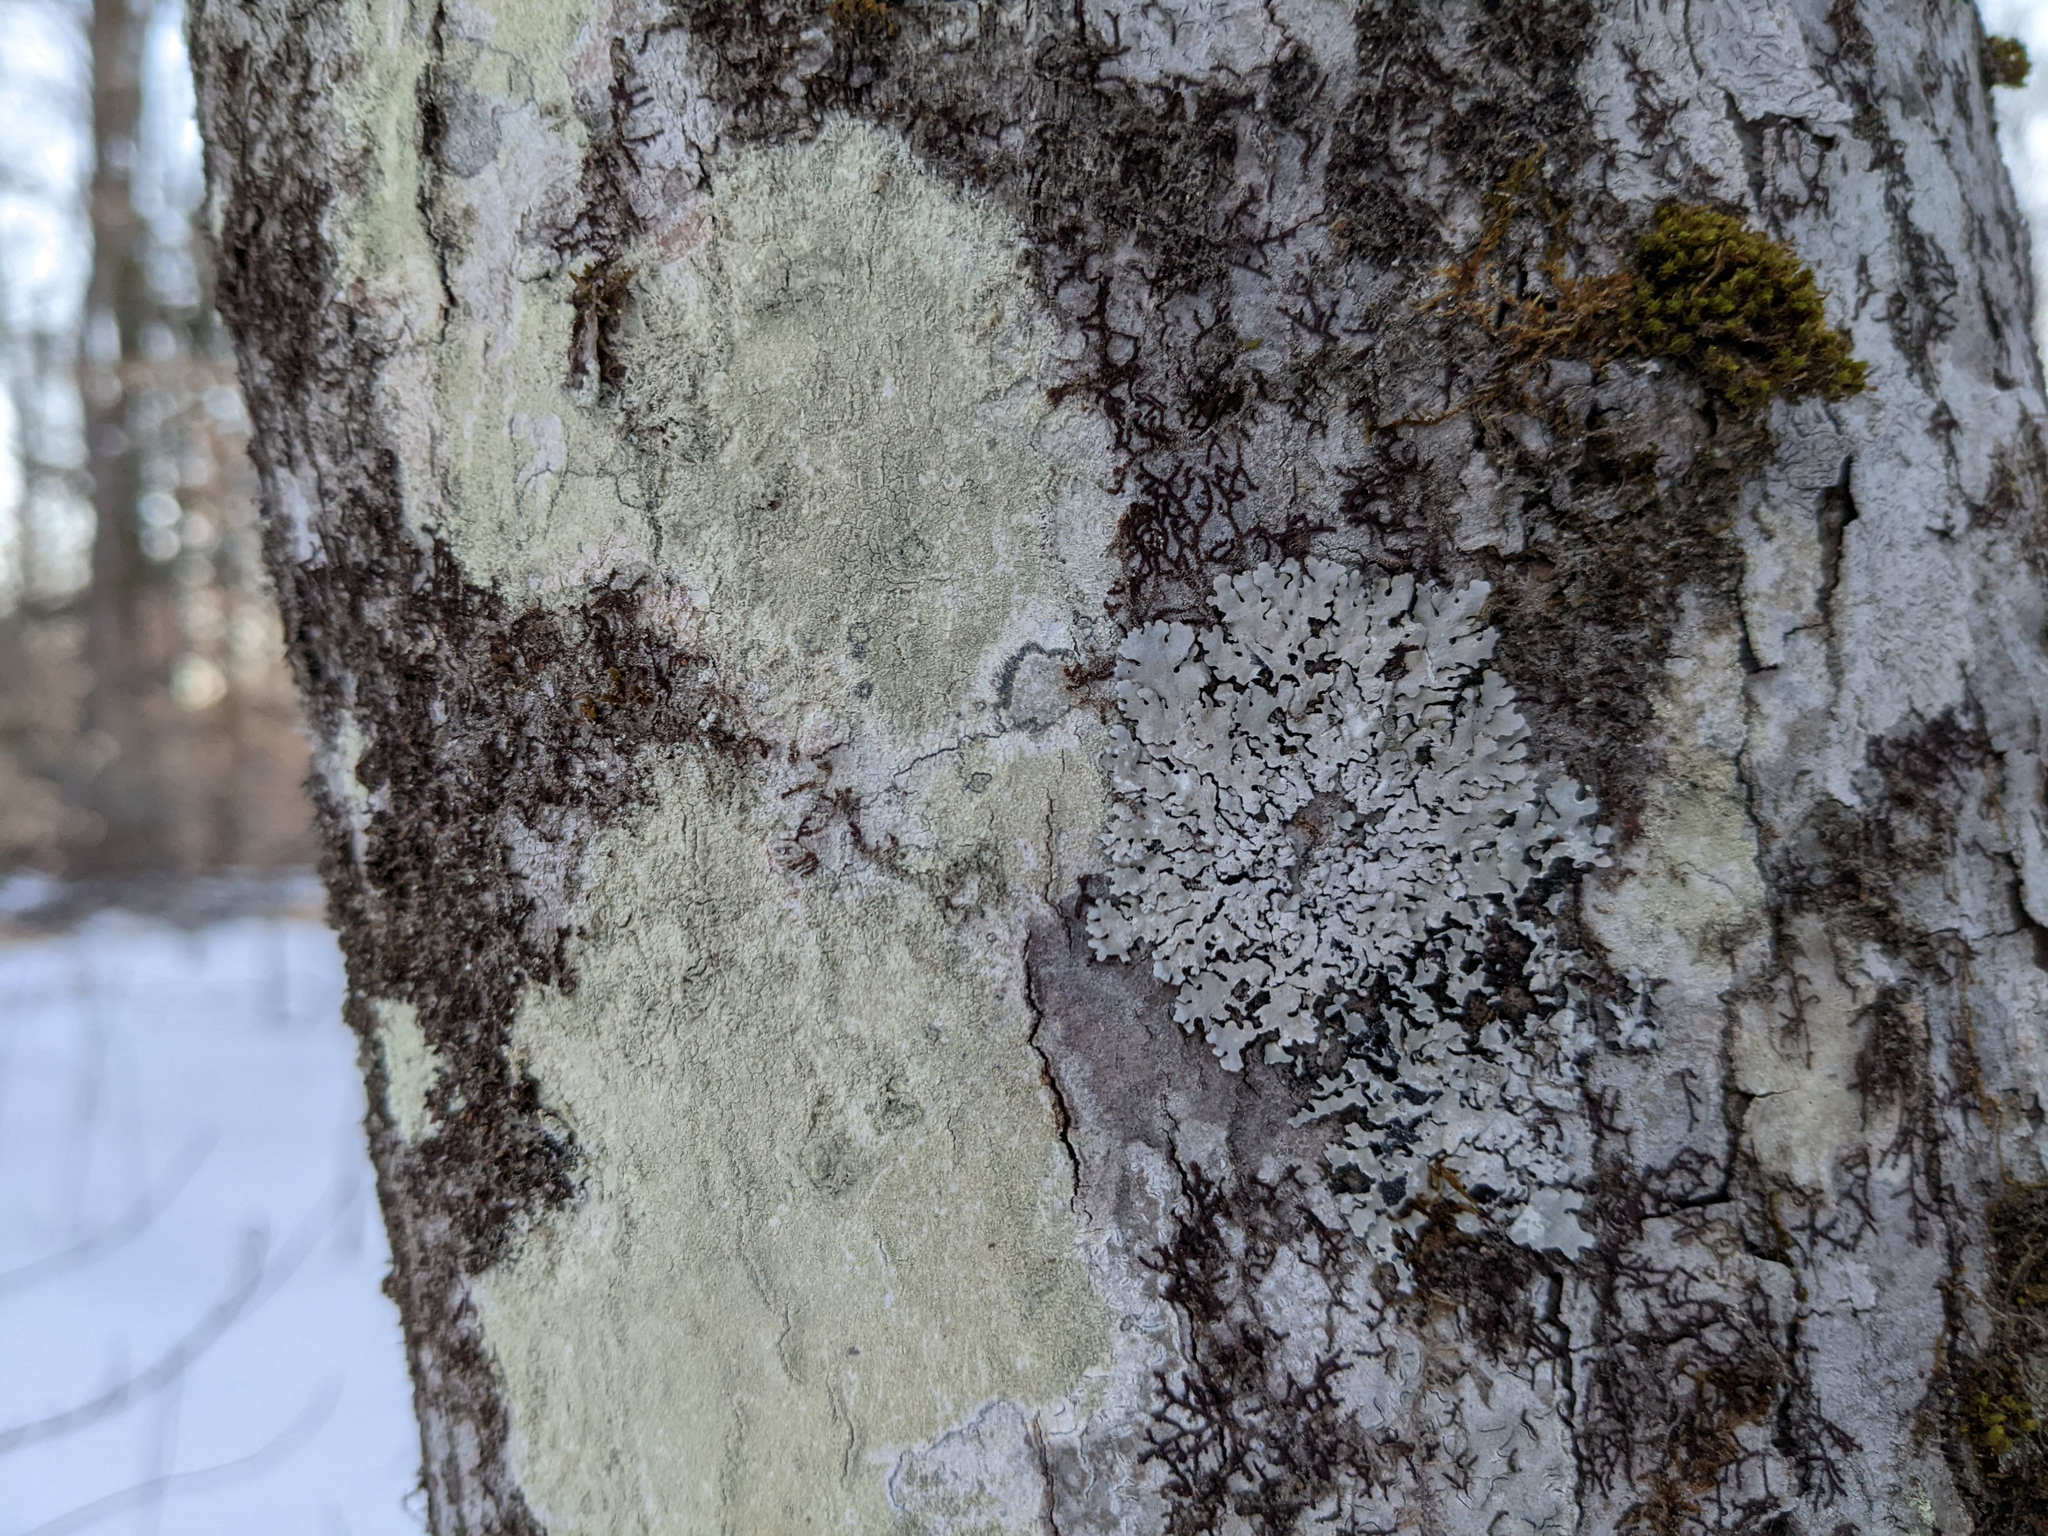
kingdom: Plantae
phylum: Bryophyta
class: Bryopsida
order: Orthotrichales
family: Orthotrichaceae
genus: Ulota
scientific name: Ulota crispa
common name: Crisped pincushion moss
